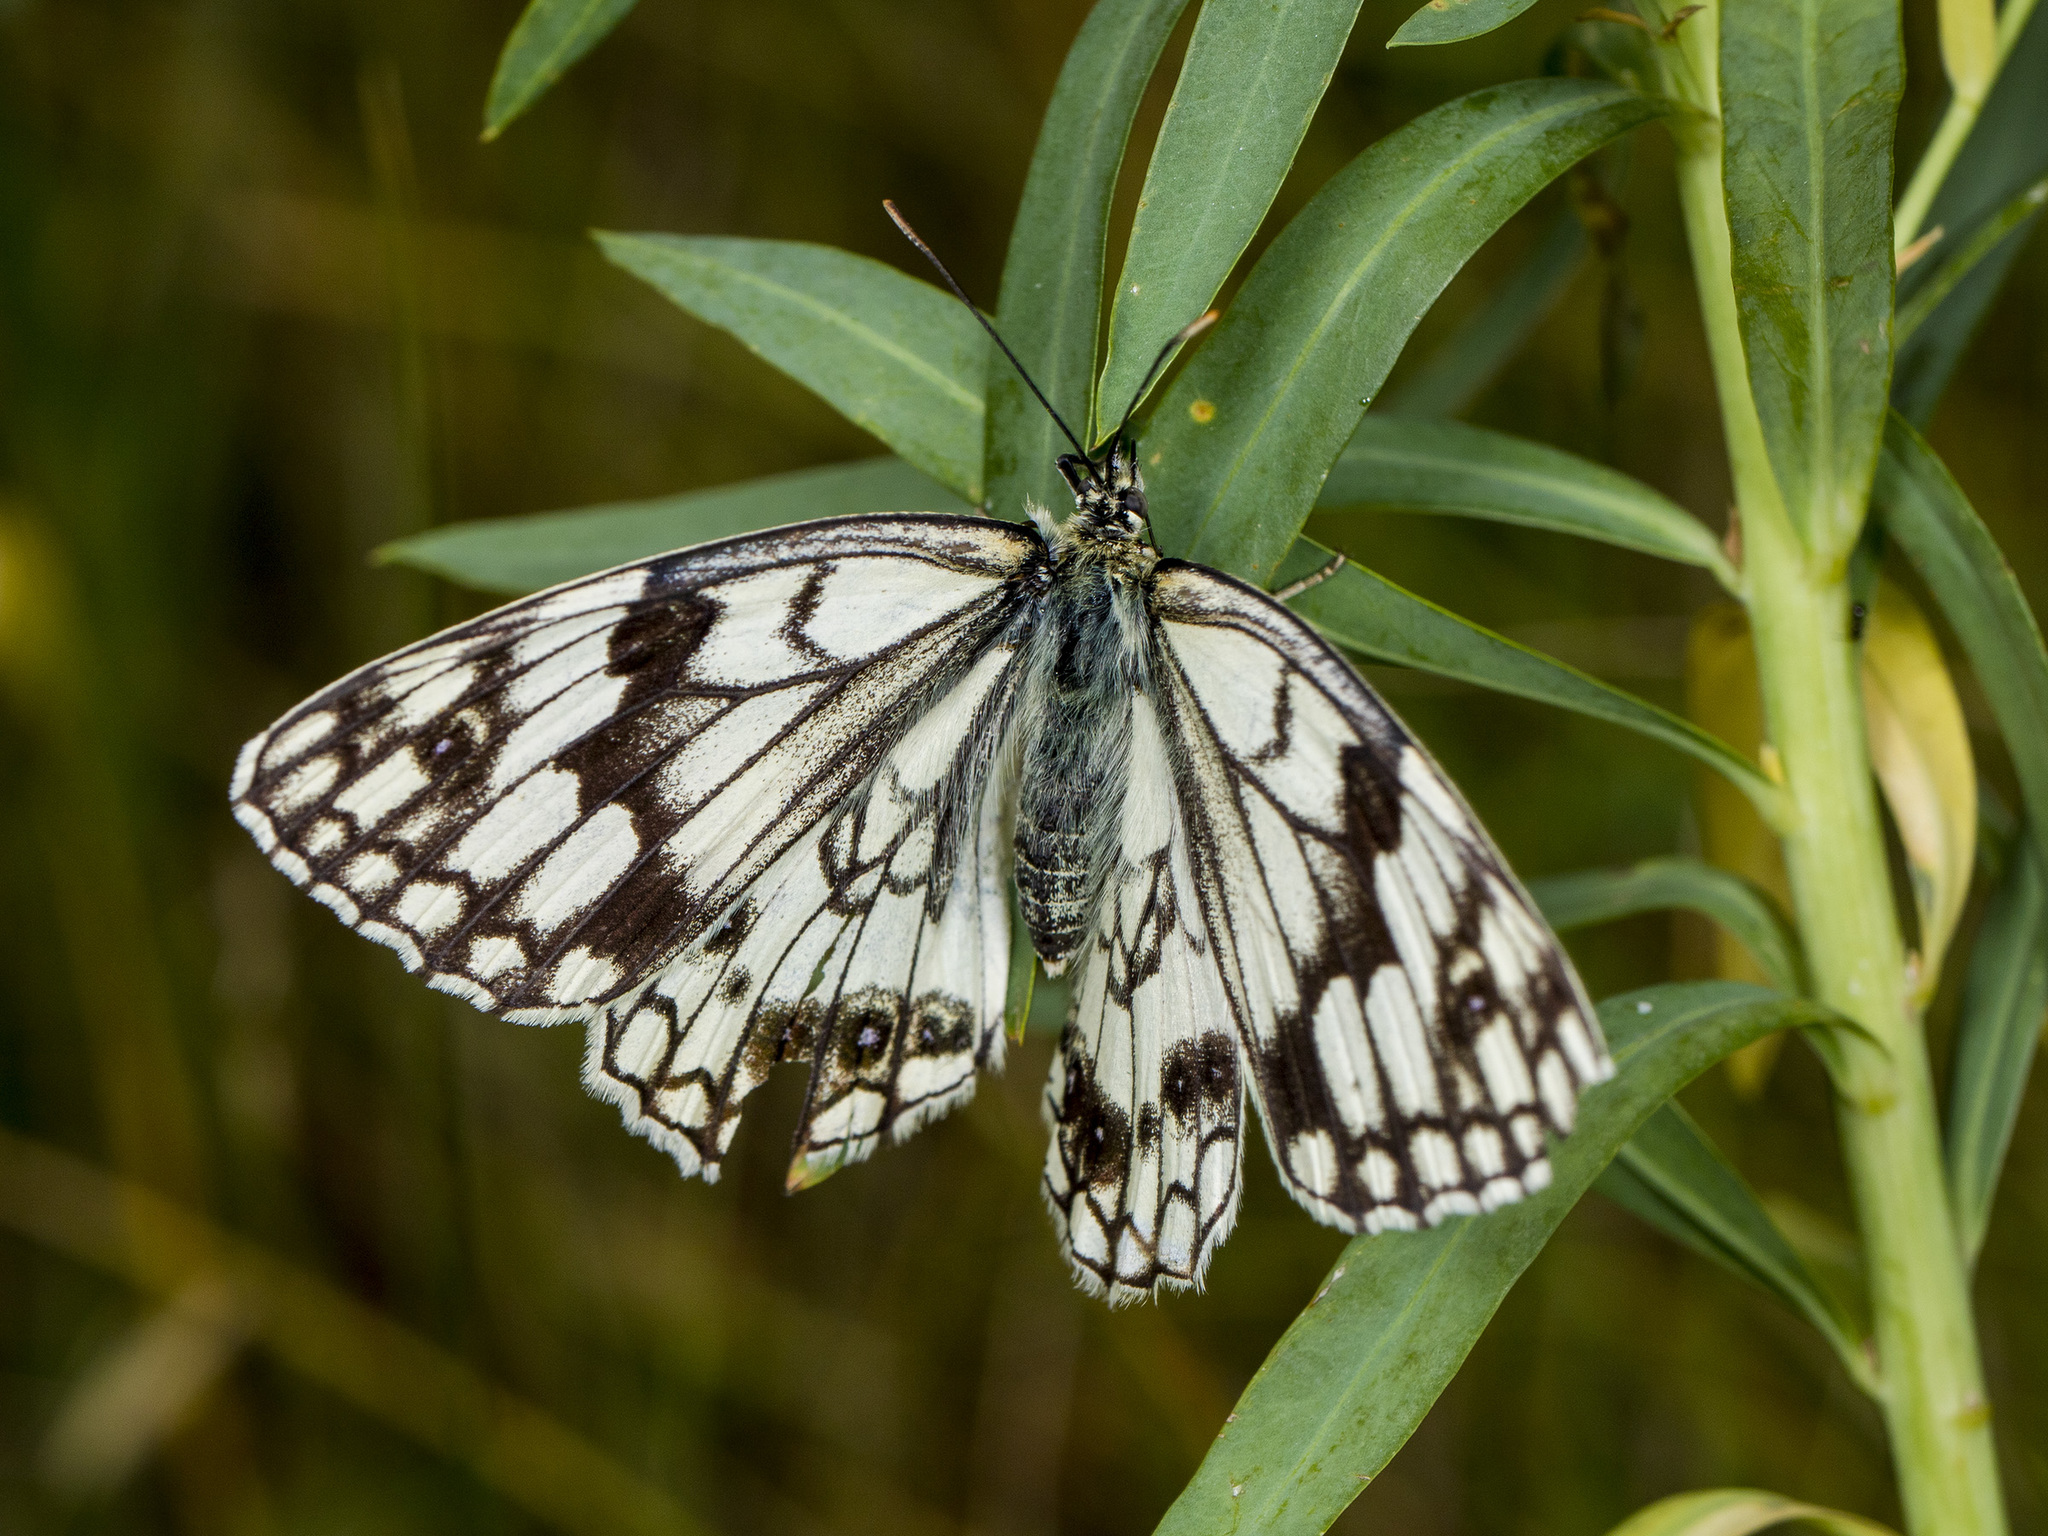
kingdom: Animalia
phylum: Arthropoda
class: Insecta
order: Lepidoptera
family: Nymphalidae
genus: Melanargia
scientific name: Melanargia parce
